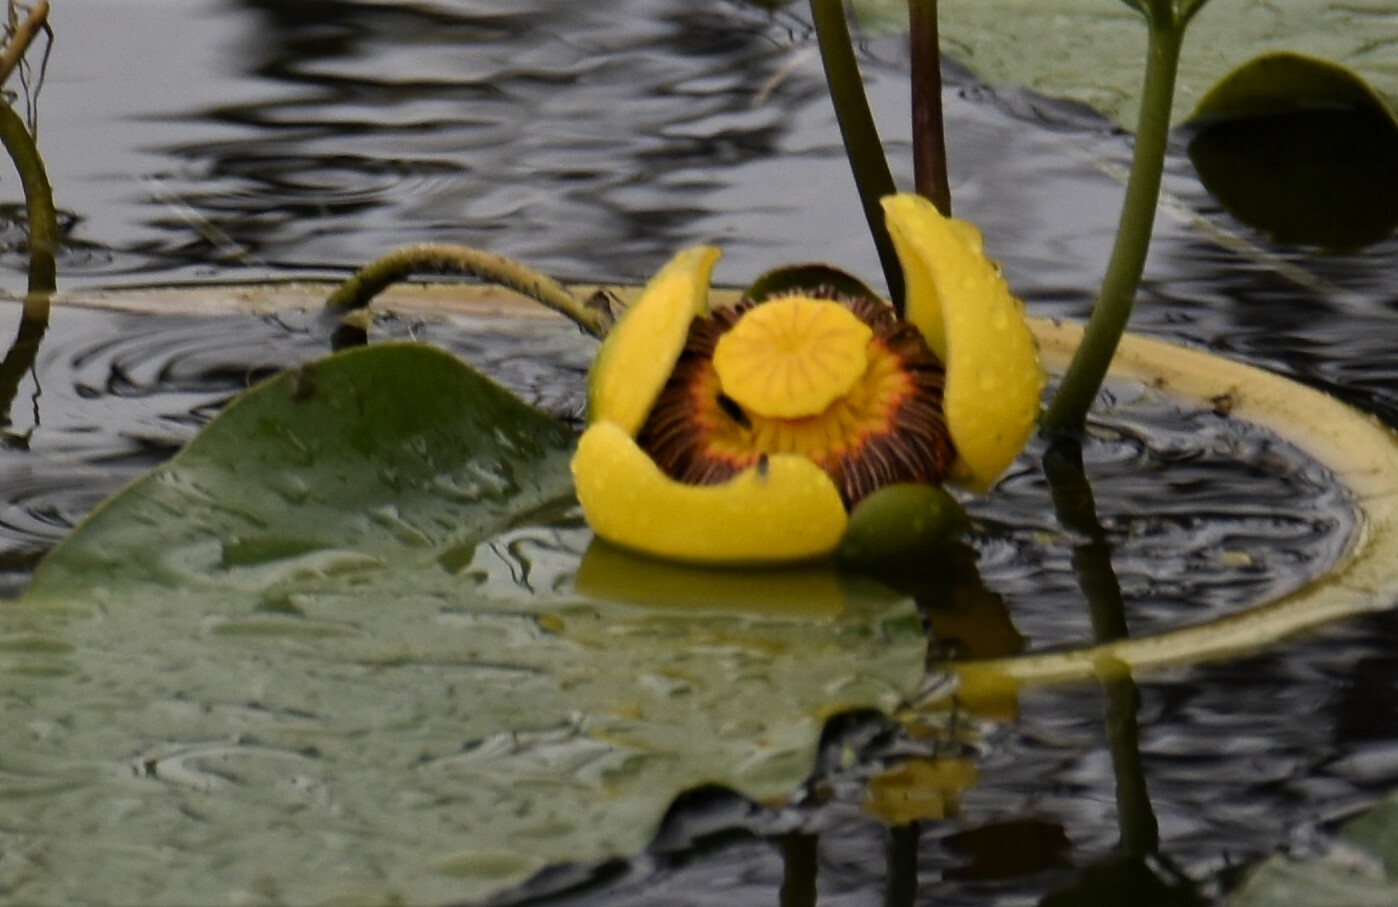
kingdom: Plantae
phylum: Tracheophyta
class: Magnoliopsida
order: Nymphaeales
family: Nymphaeaceae
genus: Nuphar
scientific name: Nuphar polysepala
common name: Rocky mountain cow-lily
